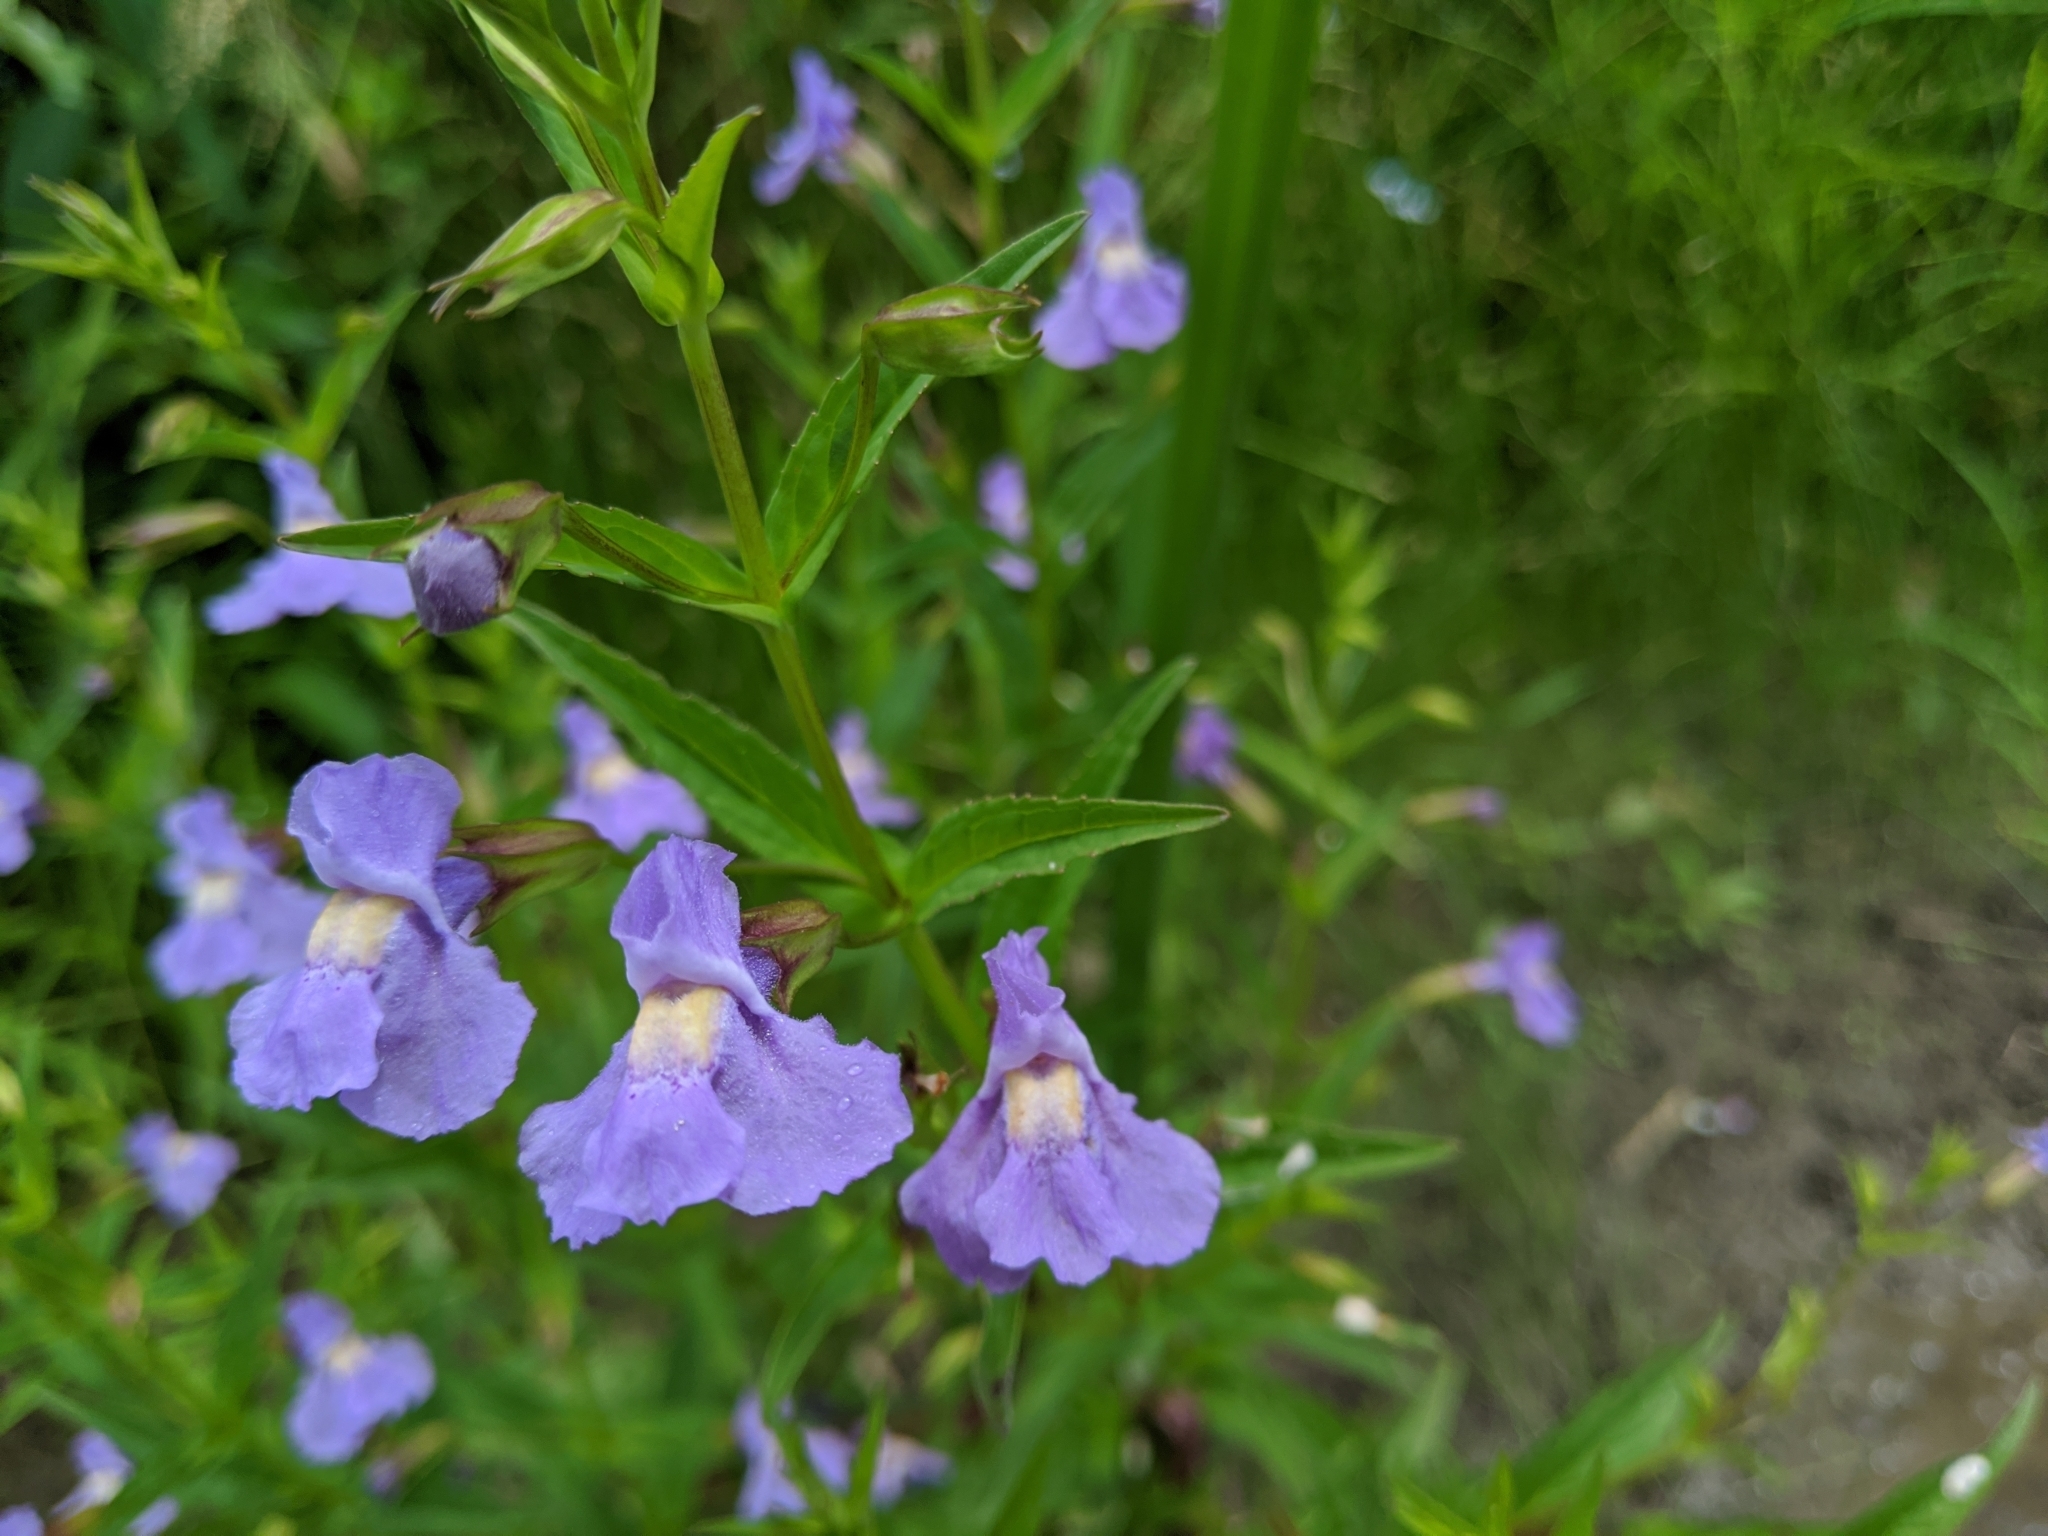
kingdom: Plantae
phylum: Tracheophyta
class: Magnoliopsida
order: Lamiales
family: Phrymaceae
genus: Mimulus
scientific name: Mimulus ringens
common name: Allegheny monkeyflower
